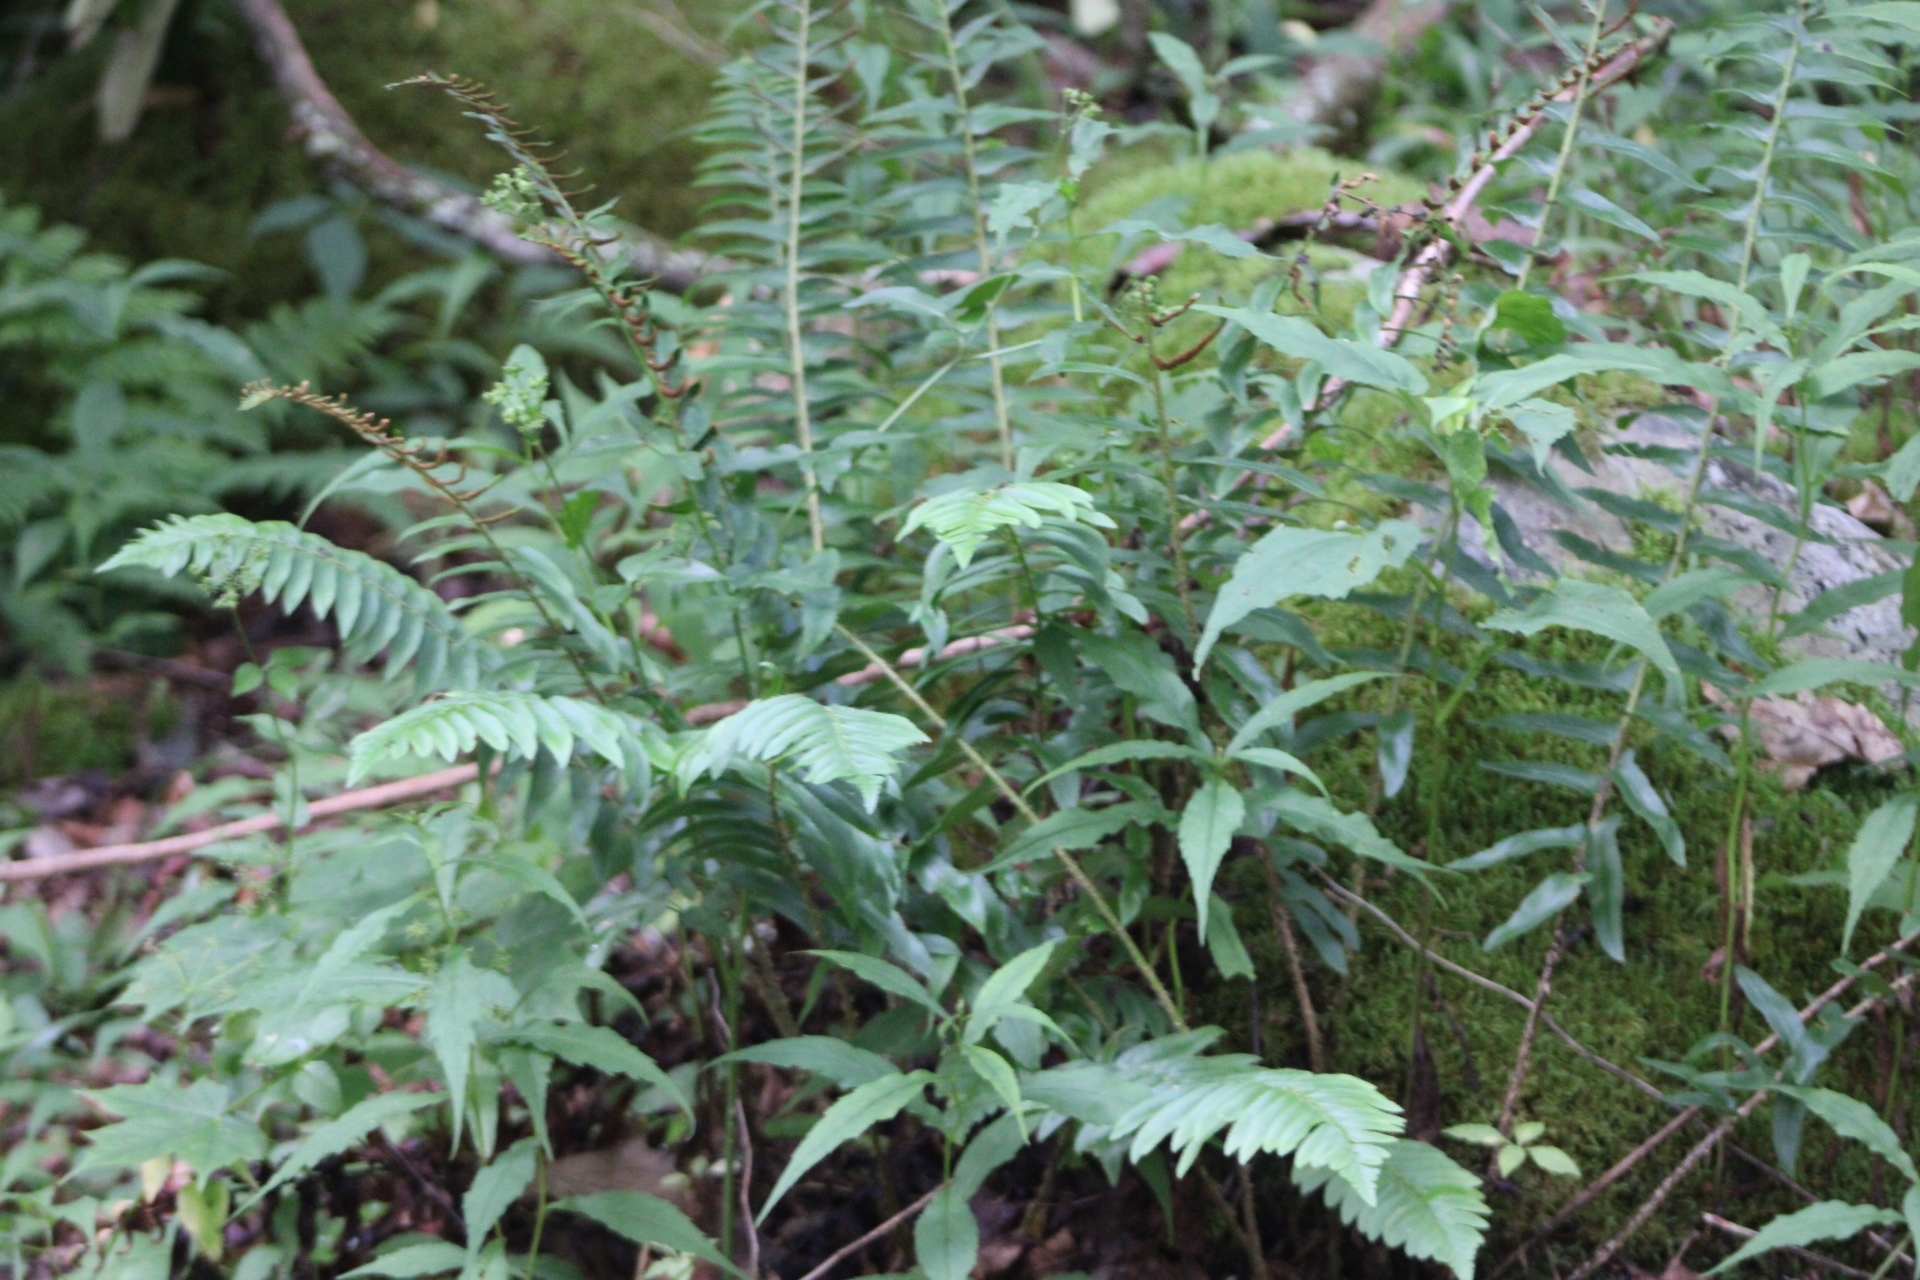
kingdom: Plantae
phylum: Tracheophyta
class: Polypodiopsida
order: Polypodiales
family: Dryopteridaceae
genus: Polystichum
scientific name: Polystichum acrostichoides
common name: Christmas fern
